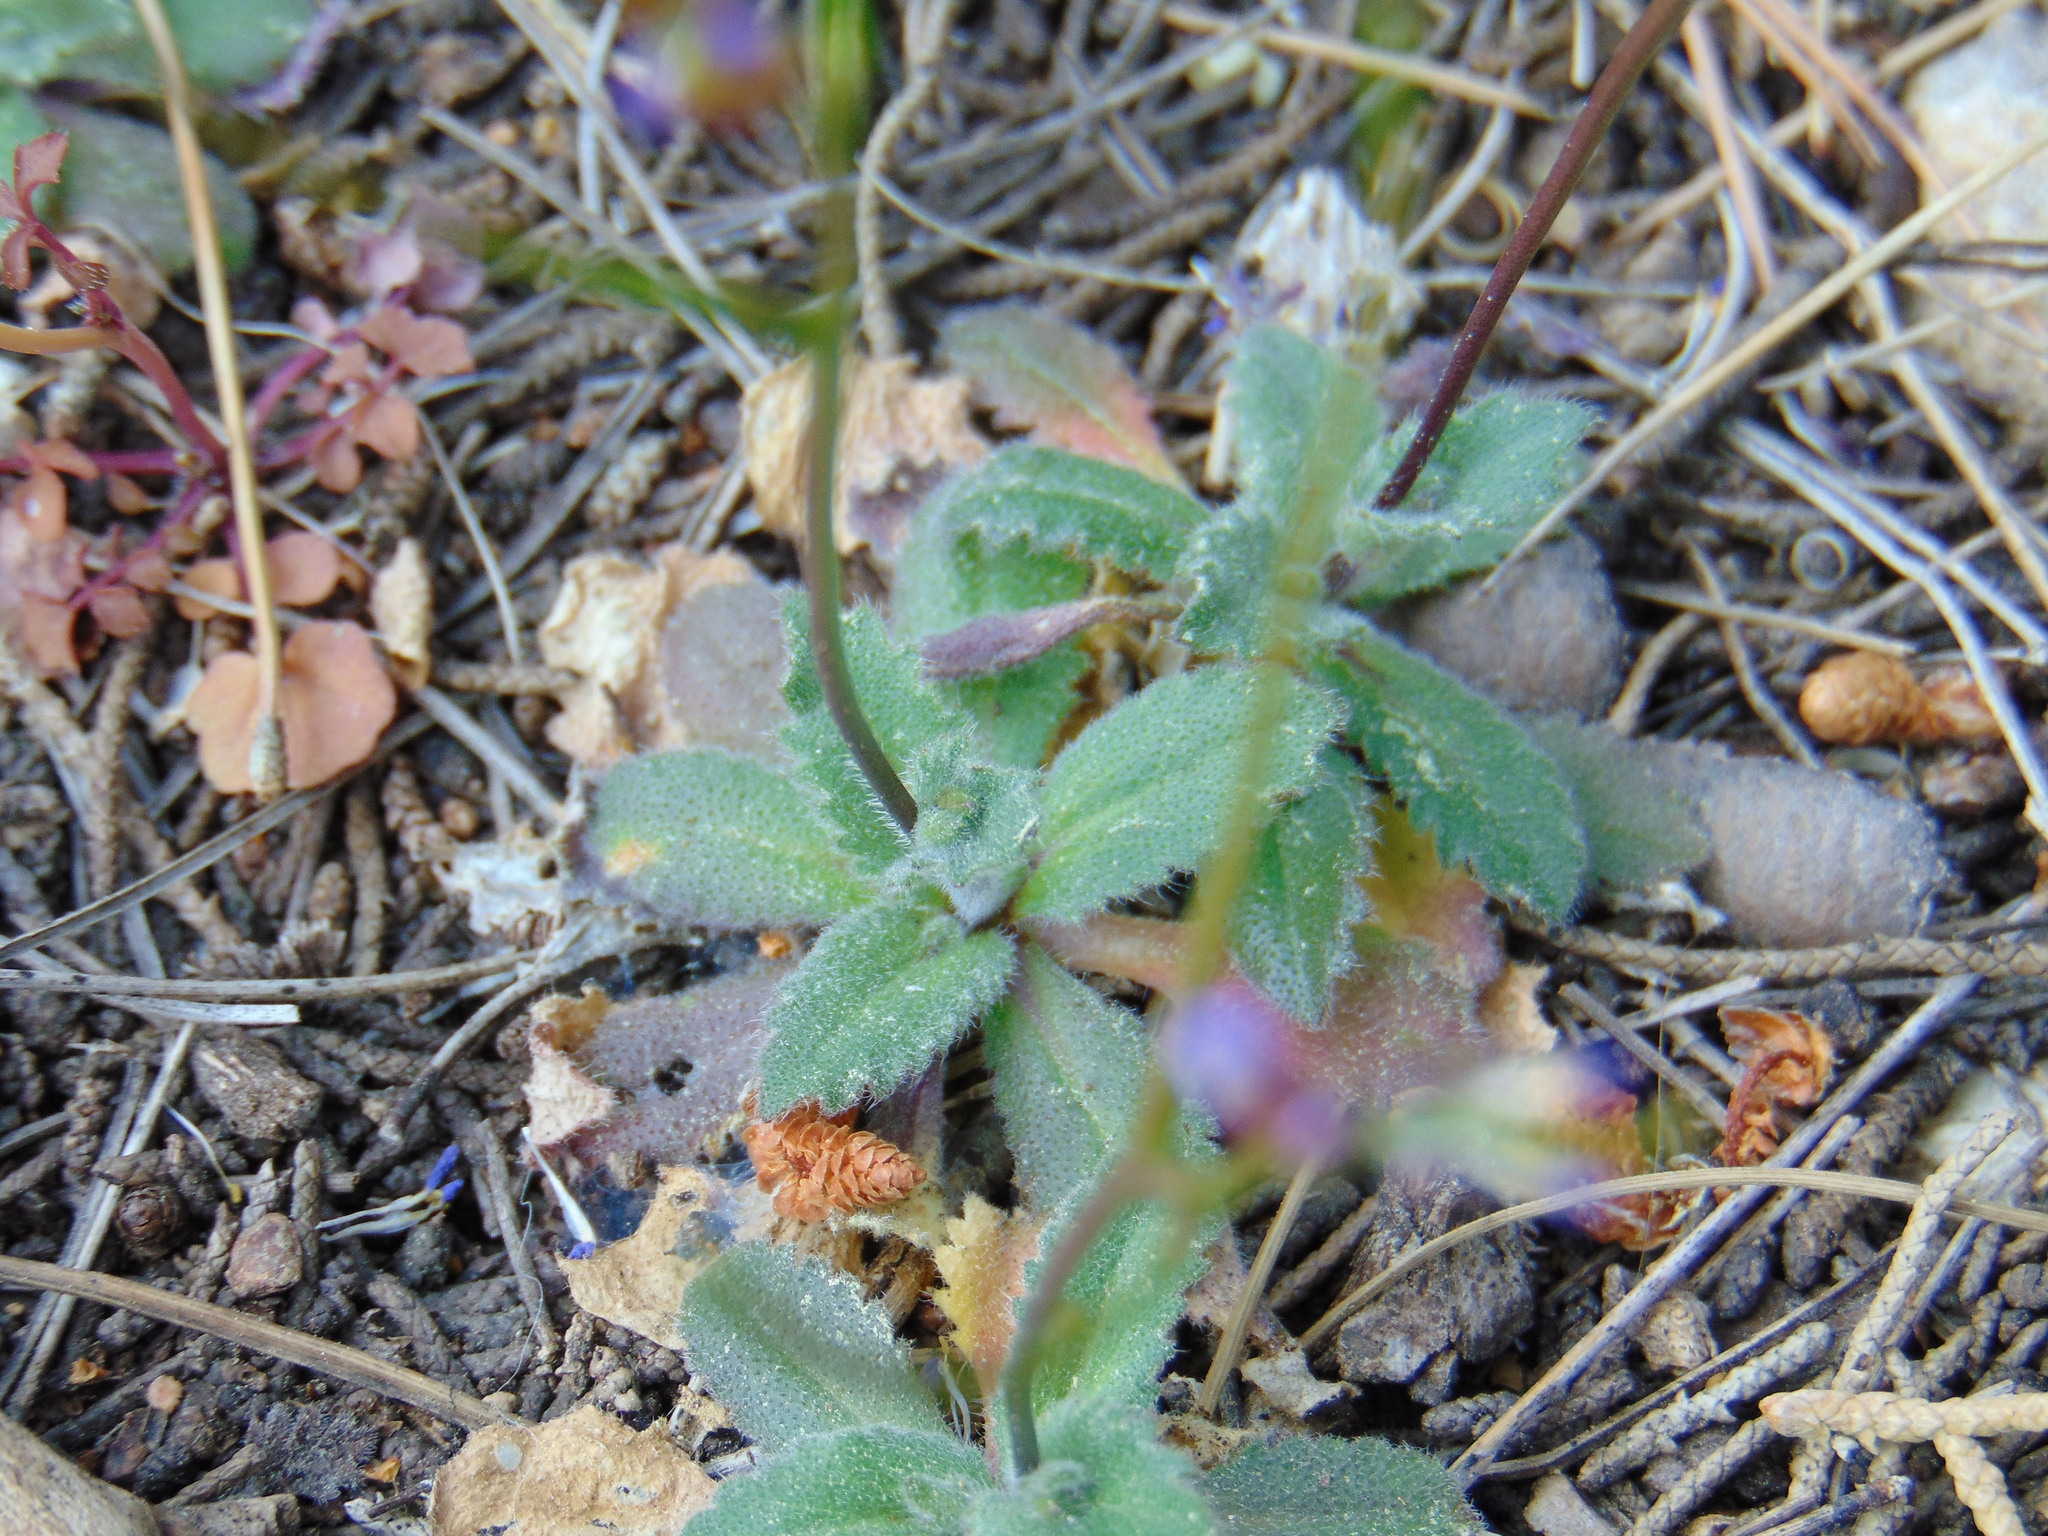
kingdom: Plantae
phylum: Tracheophyta
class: Magnoliopsida
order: Brassicales
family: Brassicaceae
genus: Arabis
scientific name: Arabis verna
